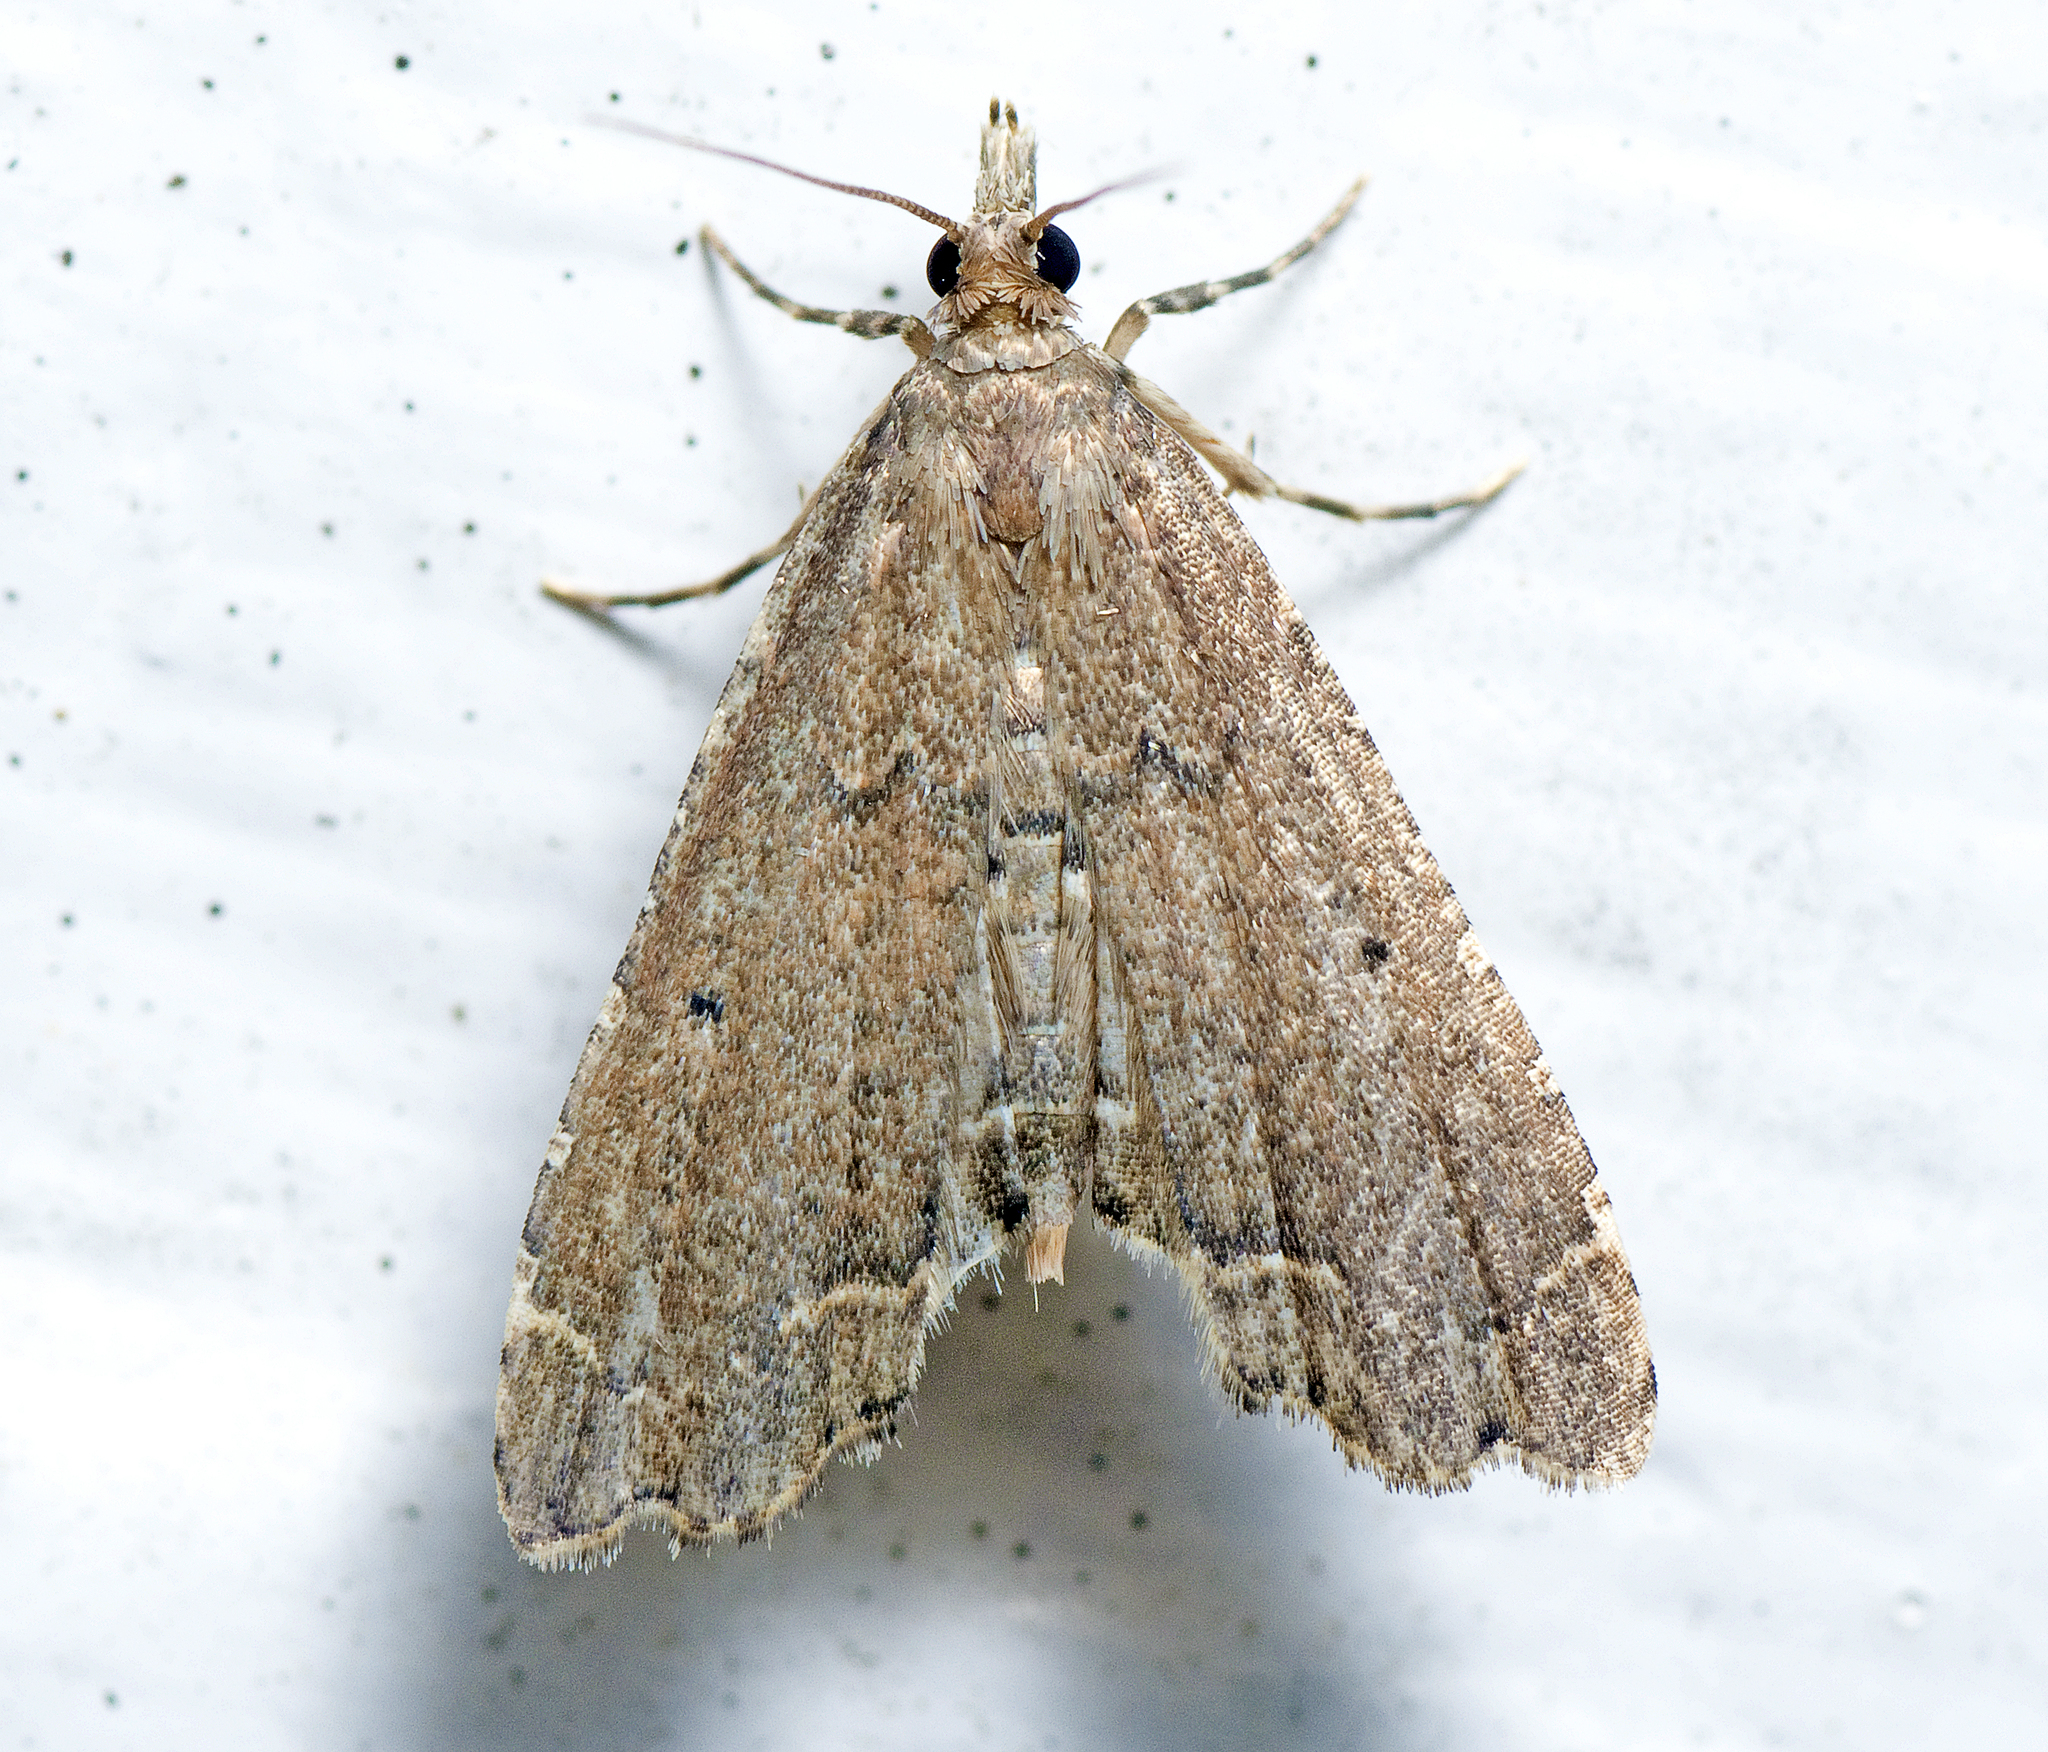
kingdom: Animalia
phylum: Arthropoda
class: Insecta
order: Lepidoptera
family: Crambidae
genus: Diplopseustis
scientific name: Diplopseustis perieresalis
